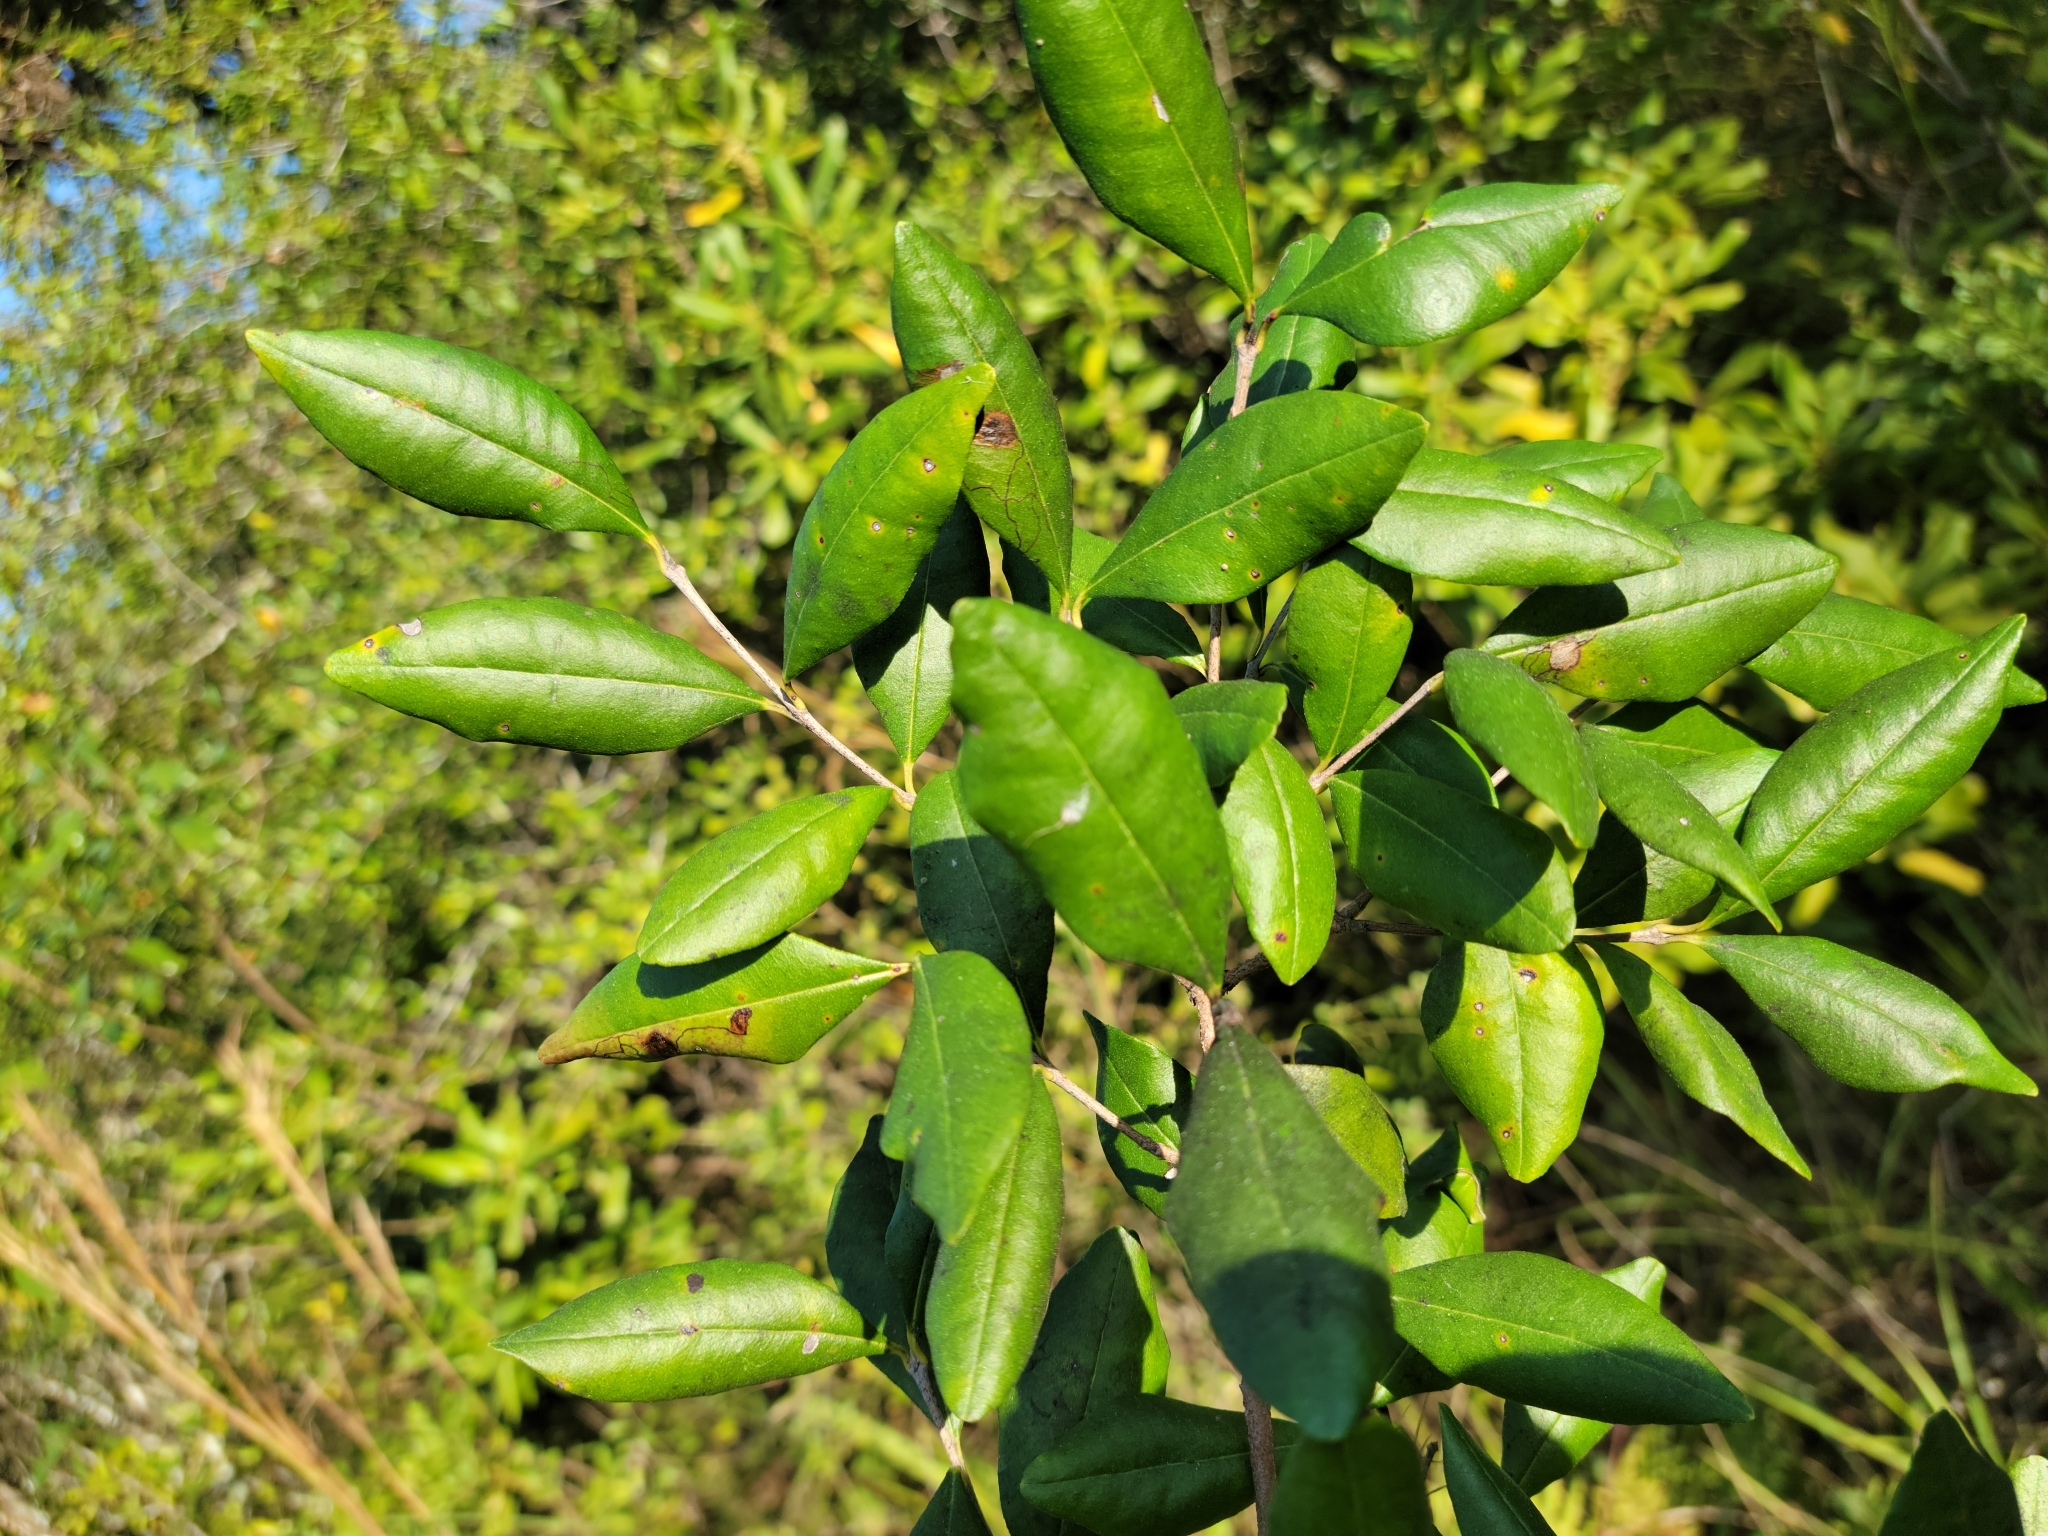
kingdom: Plantae
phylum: Tracheophyta
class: Magnoliopsida
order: Myrtales
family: Myrtaceae
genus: Myrcianthes
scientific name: Myrcianthes fragrans
